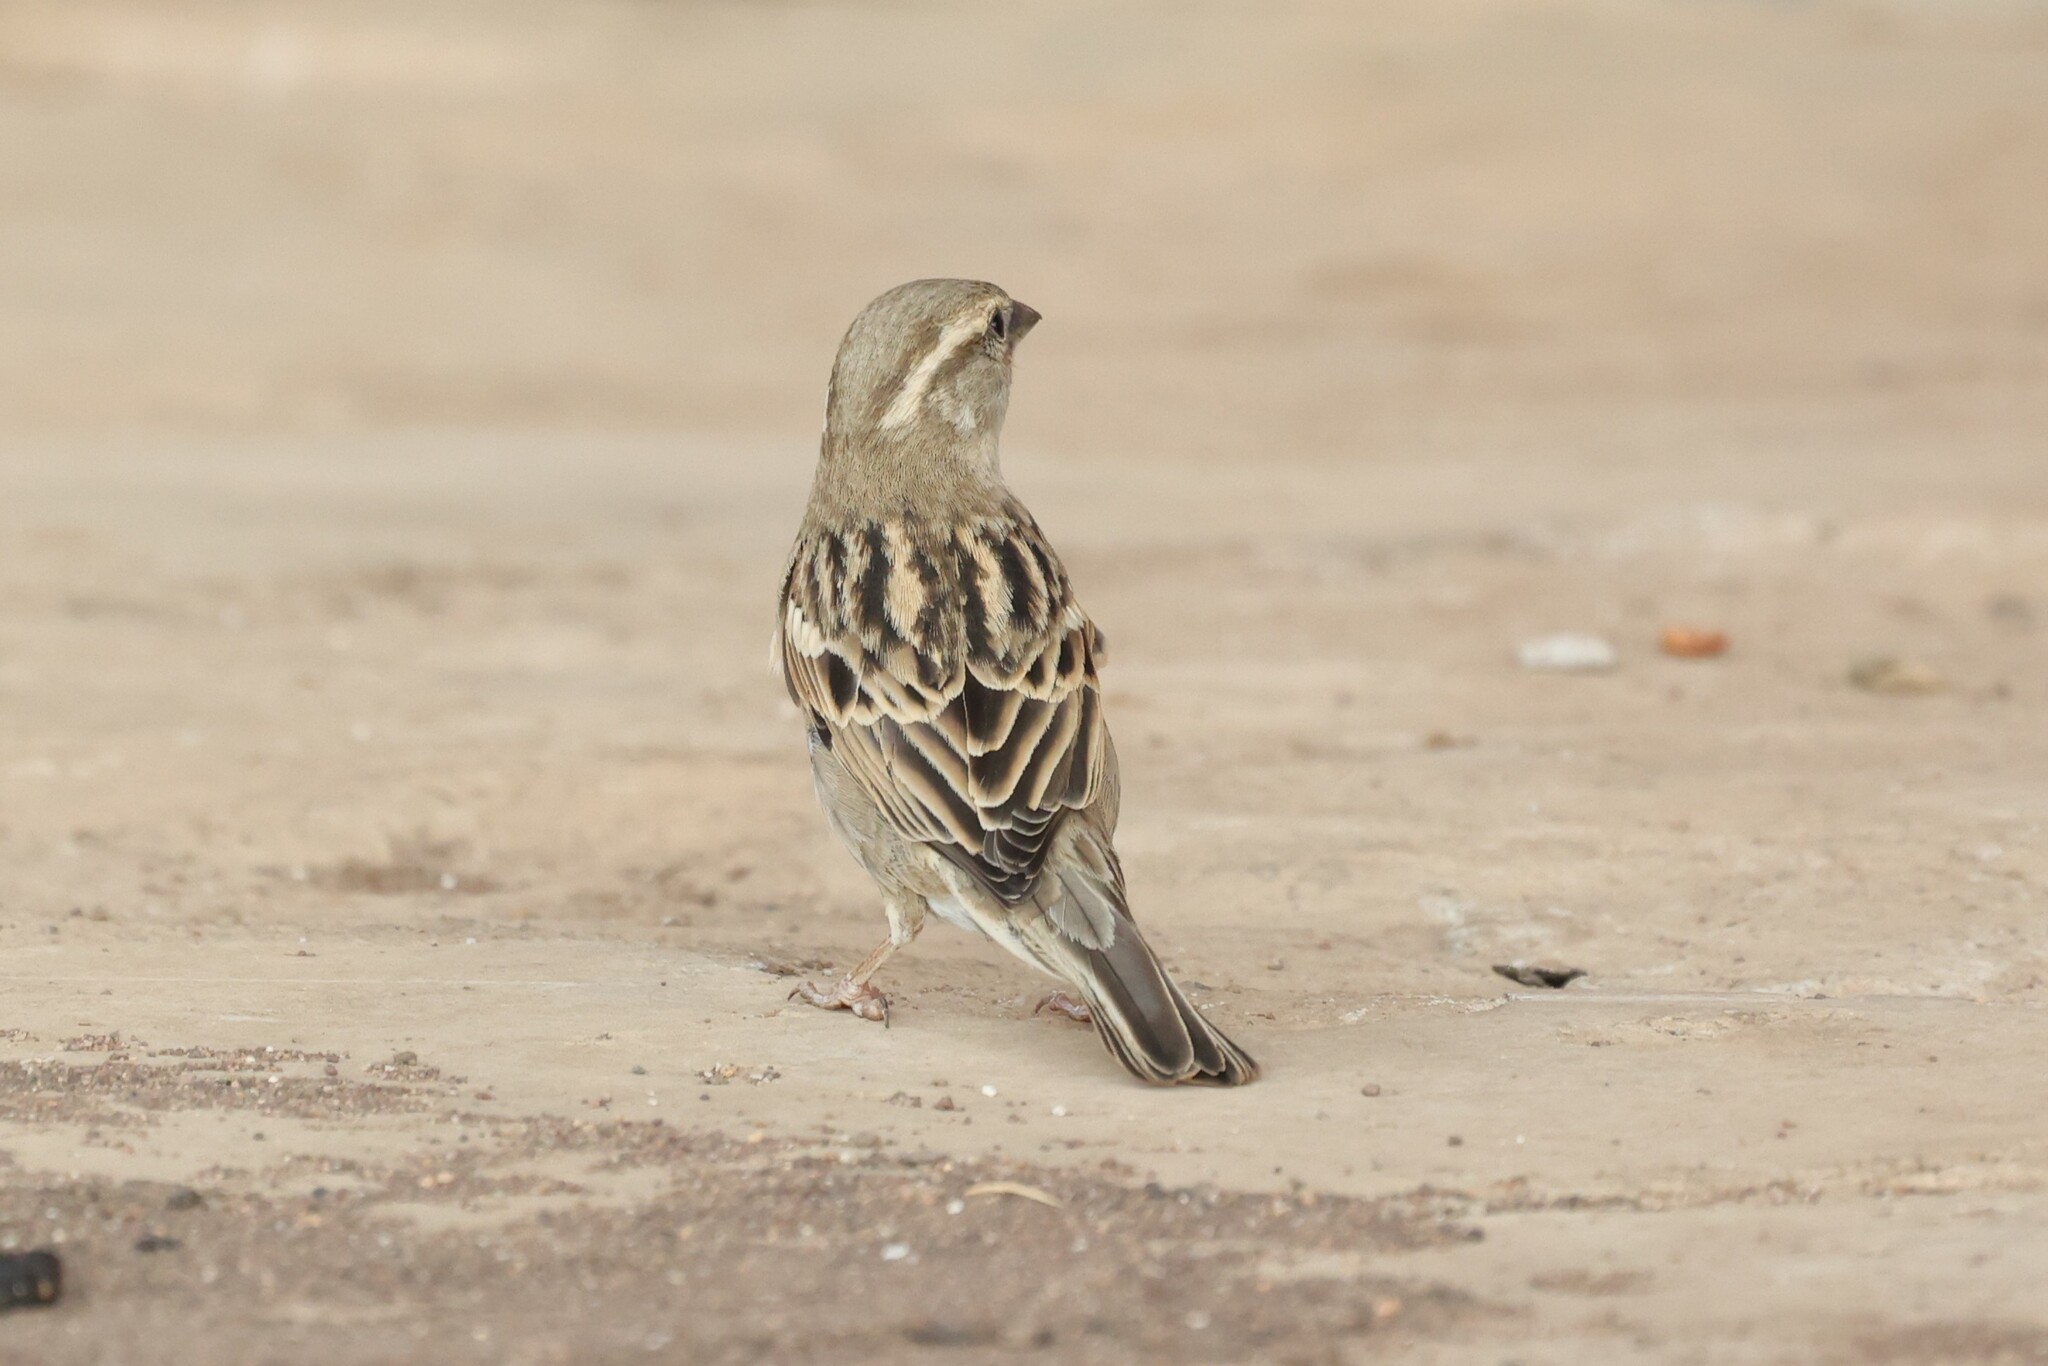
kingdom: Animalia
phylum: Chordata
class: Aves
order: Passeriformes
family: Passeridae
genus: Passer
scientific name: Passer domesticus
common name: House sparrow
